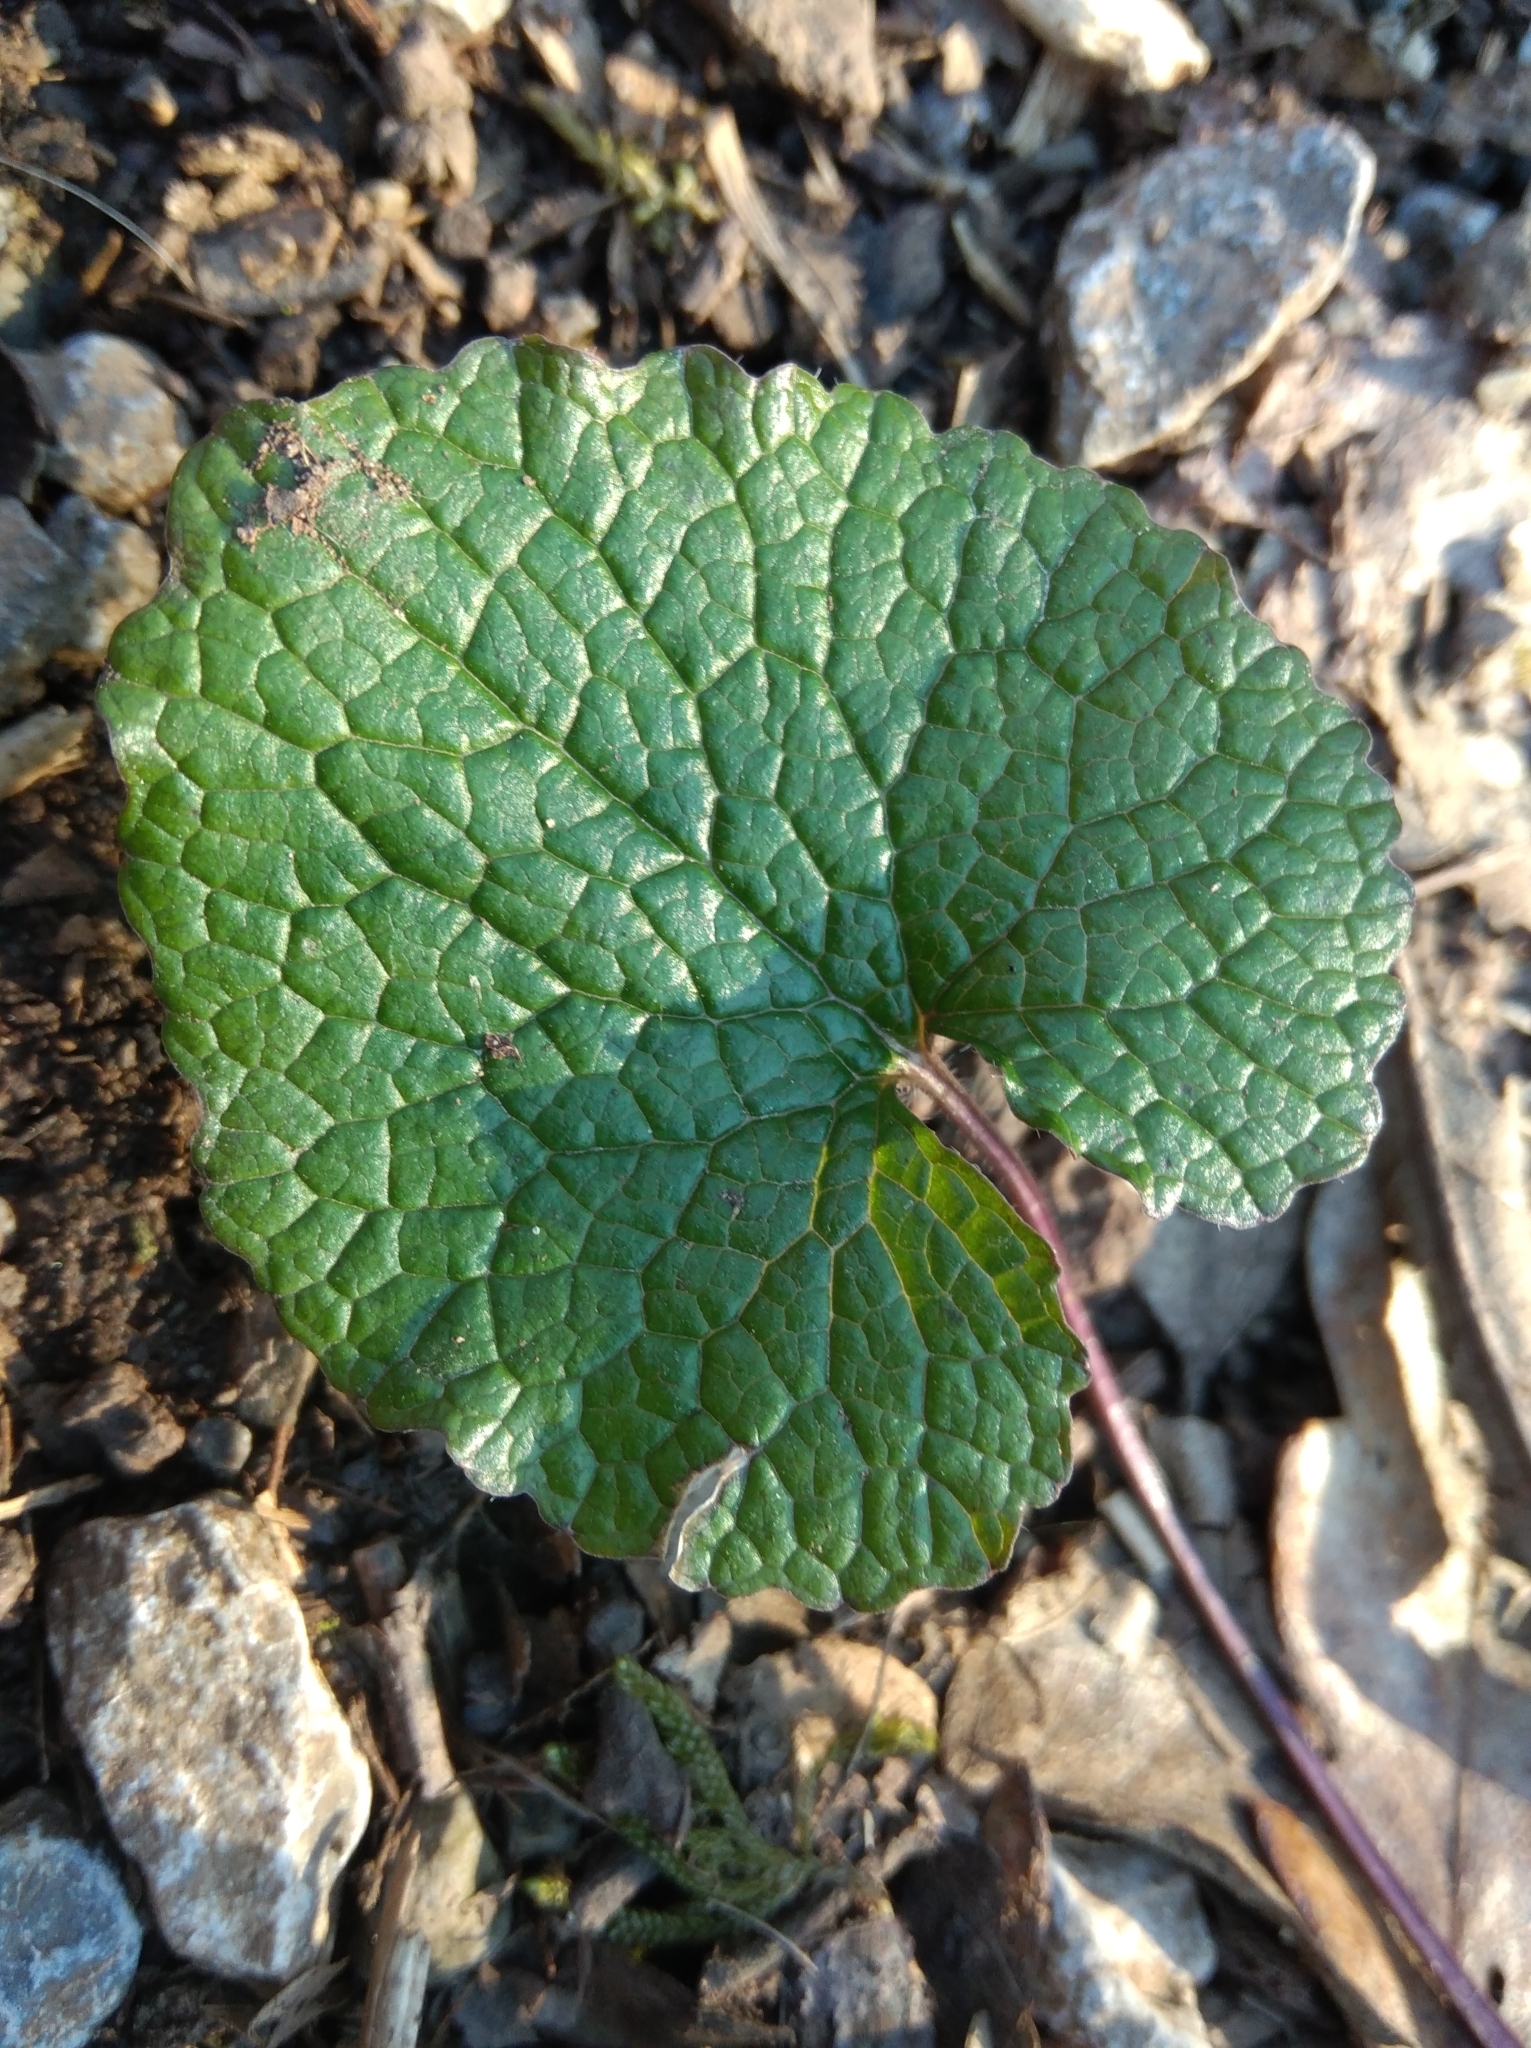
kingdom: Plantae
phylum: Tracheophyta
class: Magnoliopsida
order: Brassicales
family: Brassicaceae
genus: Alliaria
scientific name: Alliaria petiolata
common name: Garlic mustard
